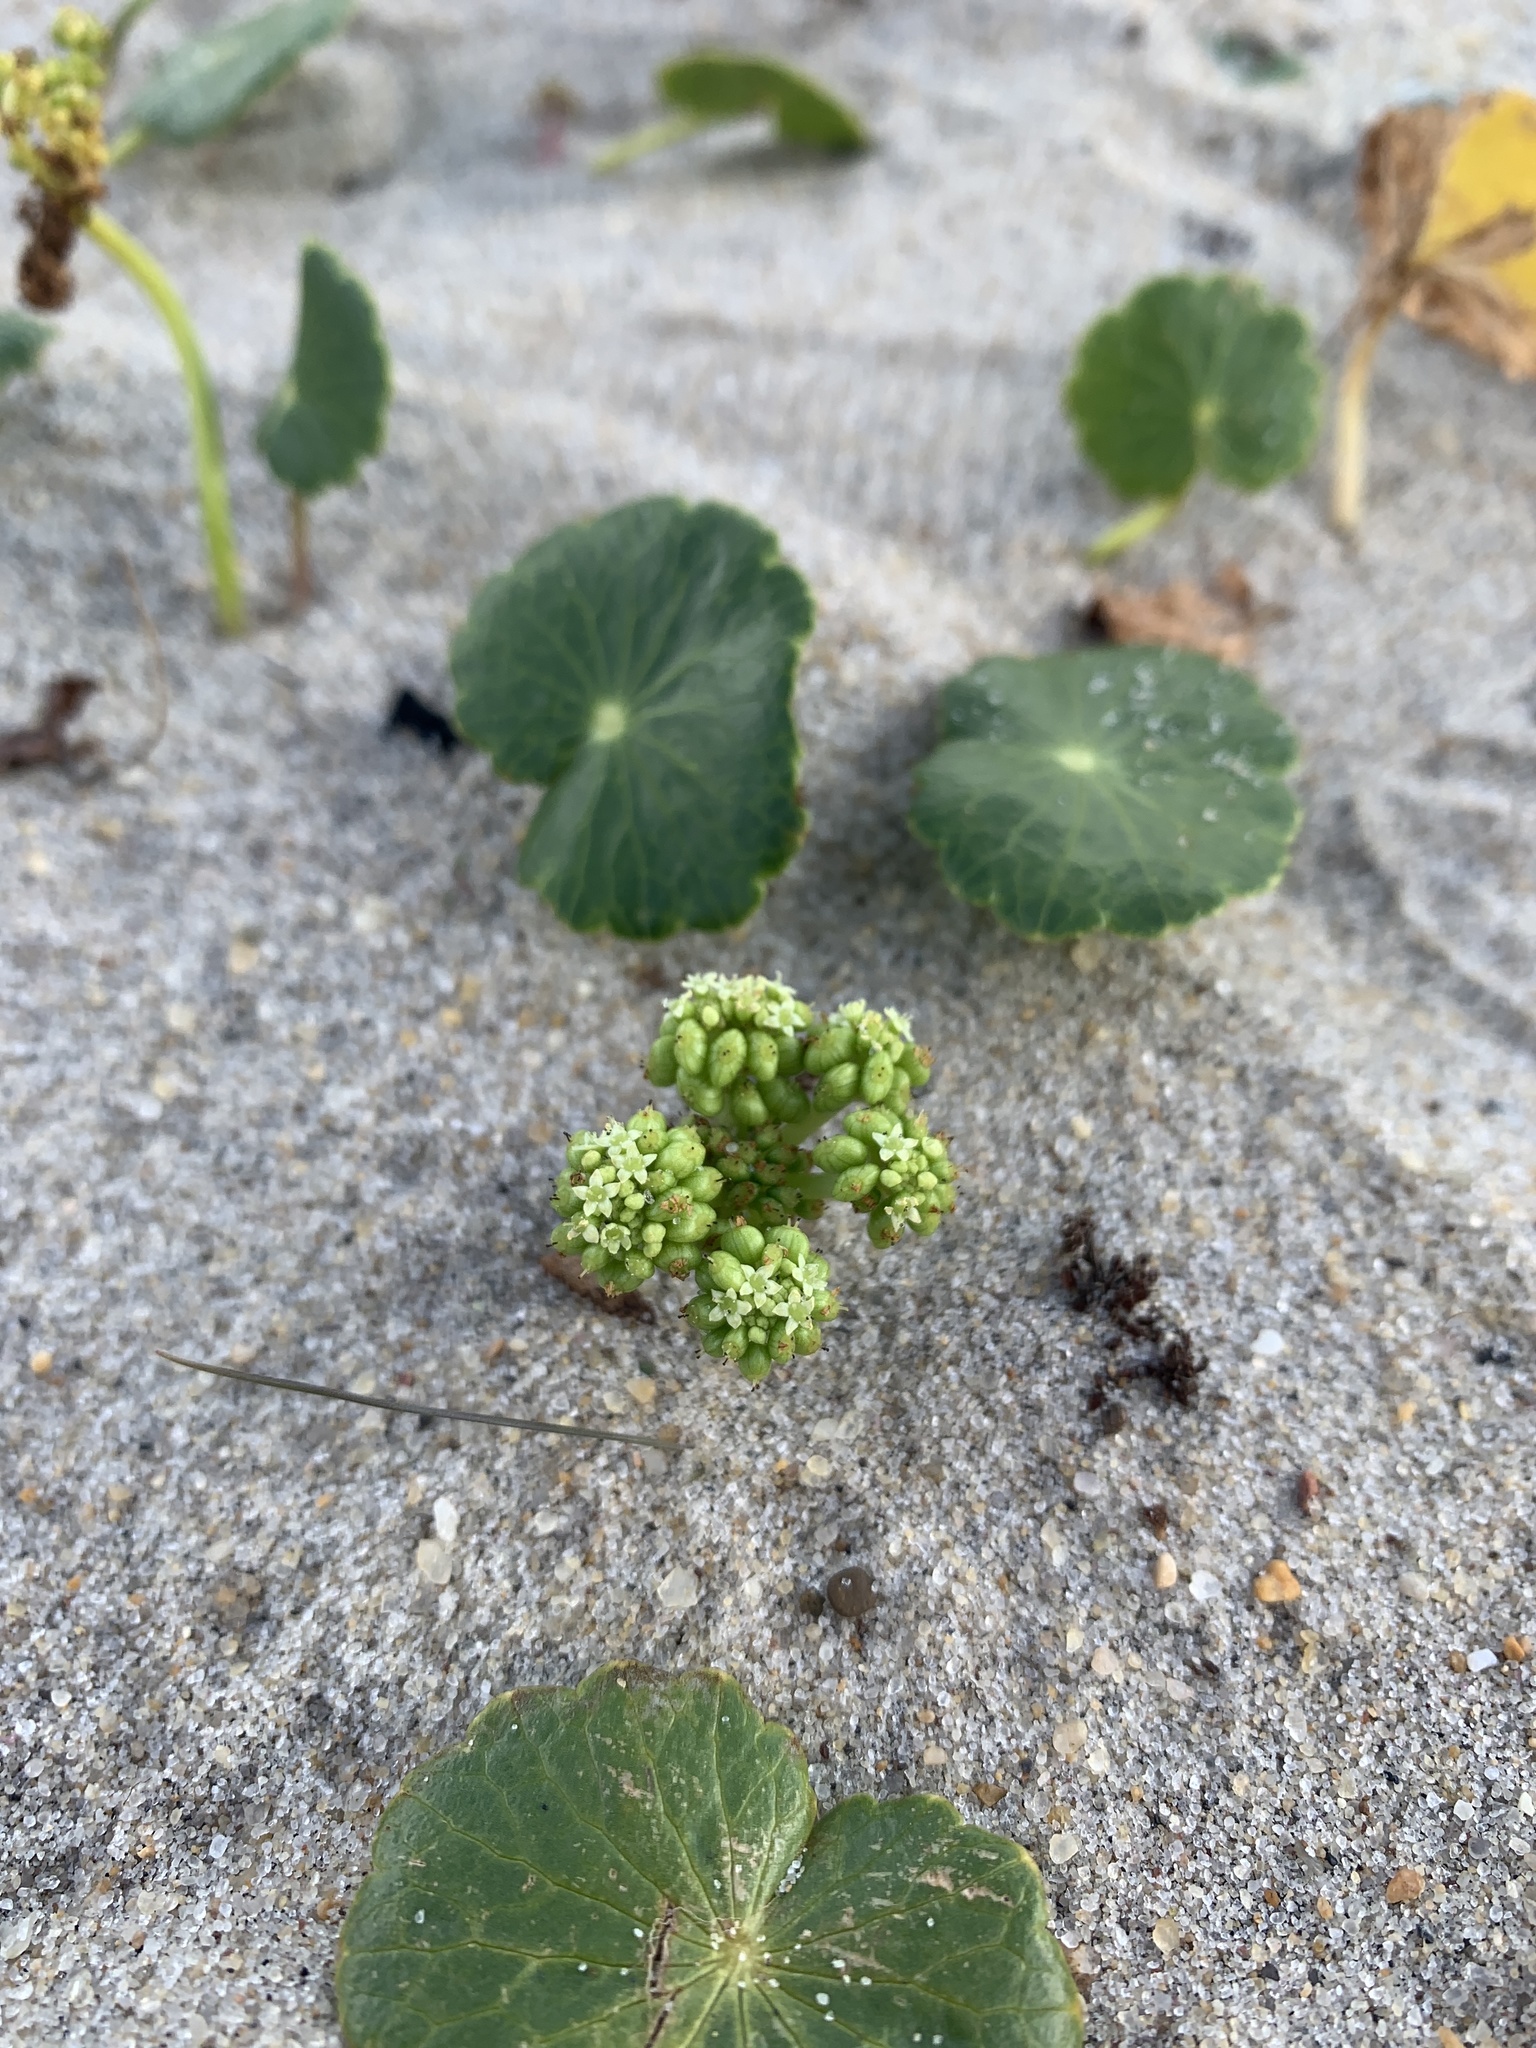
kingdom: Plantae
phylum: Tracheophyta
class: Magnoliopsida
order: Apiales
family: Araliaceae
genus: Hydrocotyle
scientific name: Hydrocotyle bonariensis
